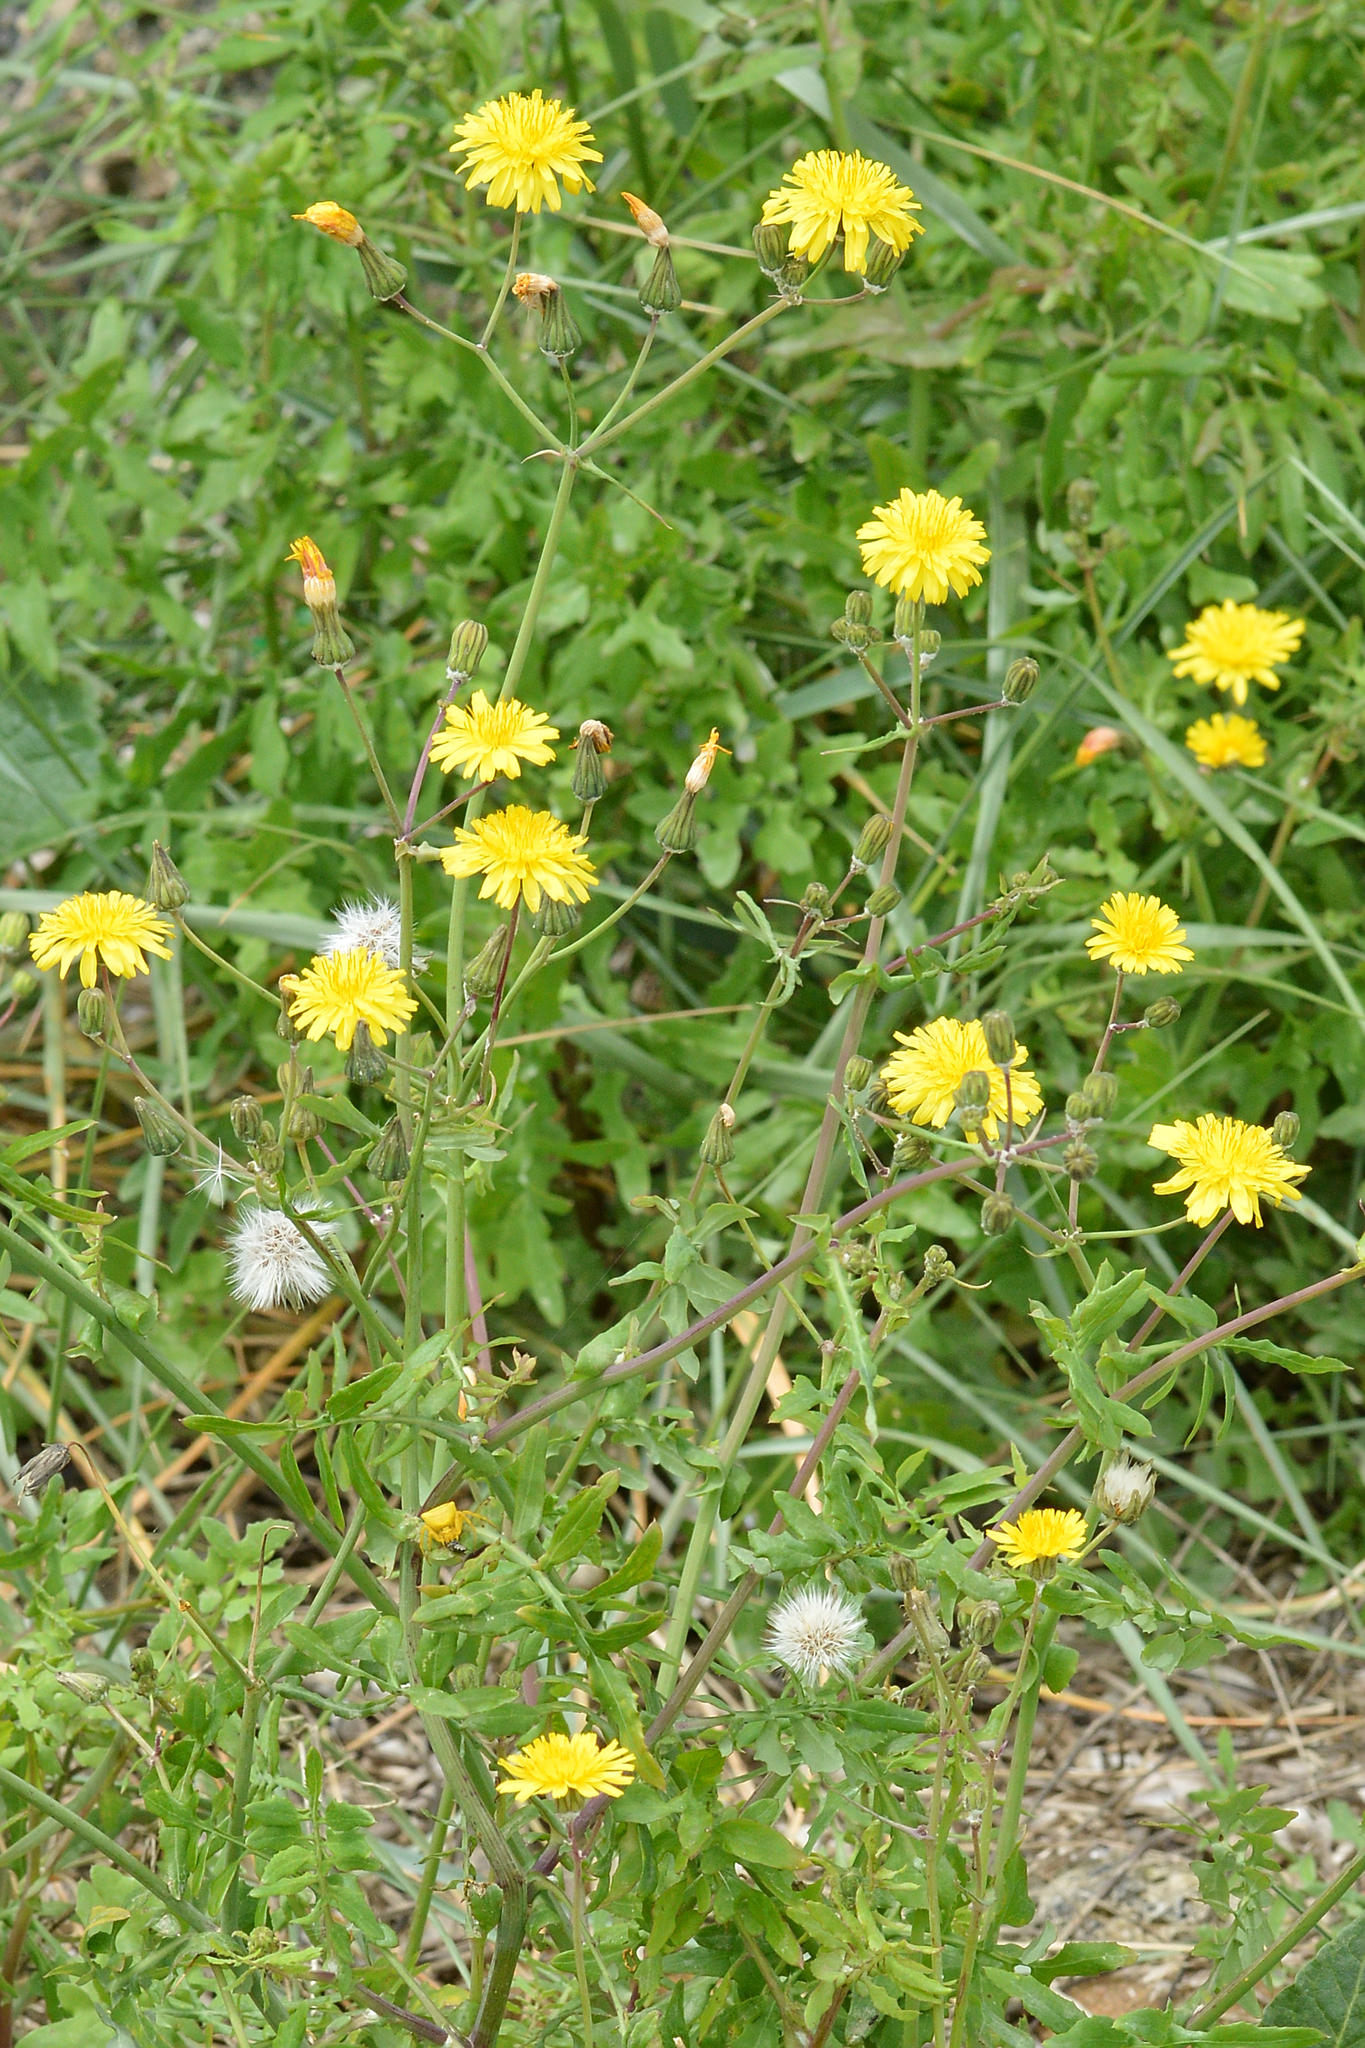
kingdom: Plantae
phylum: Tracheophyta
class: Magnoliopsida
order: Asterales
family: Asteraceae
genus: Sonchus
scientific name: Sonchus tenerrimus
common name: Clammy sowthistle
